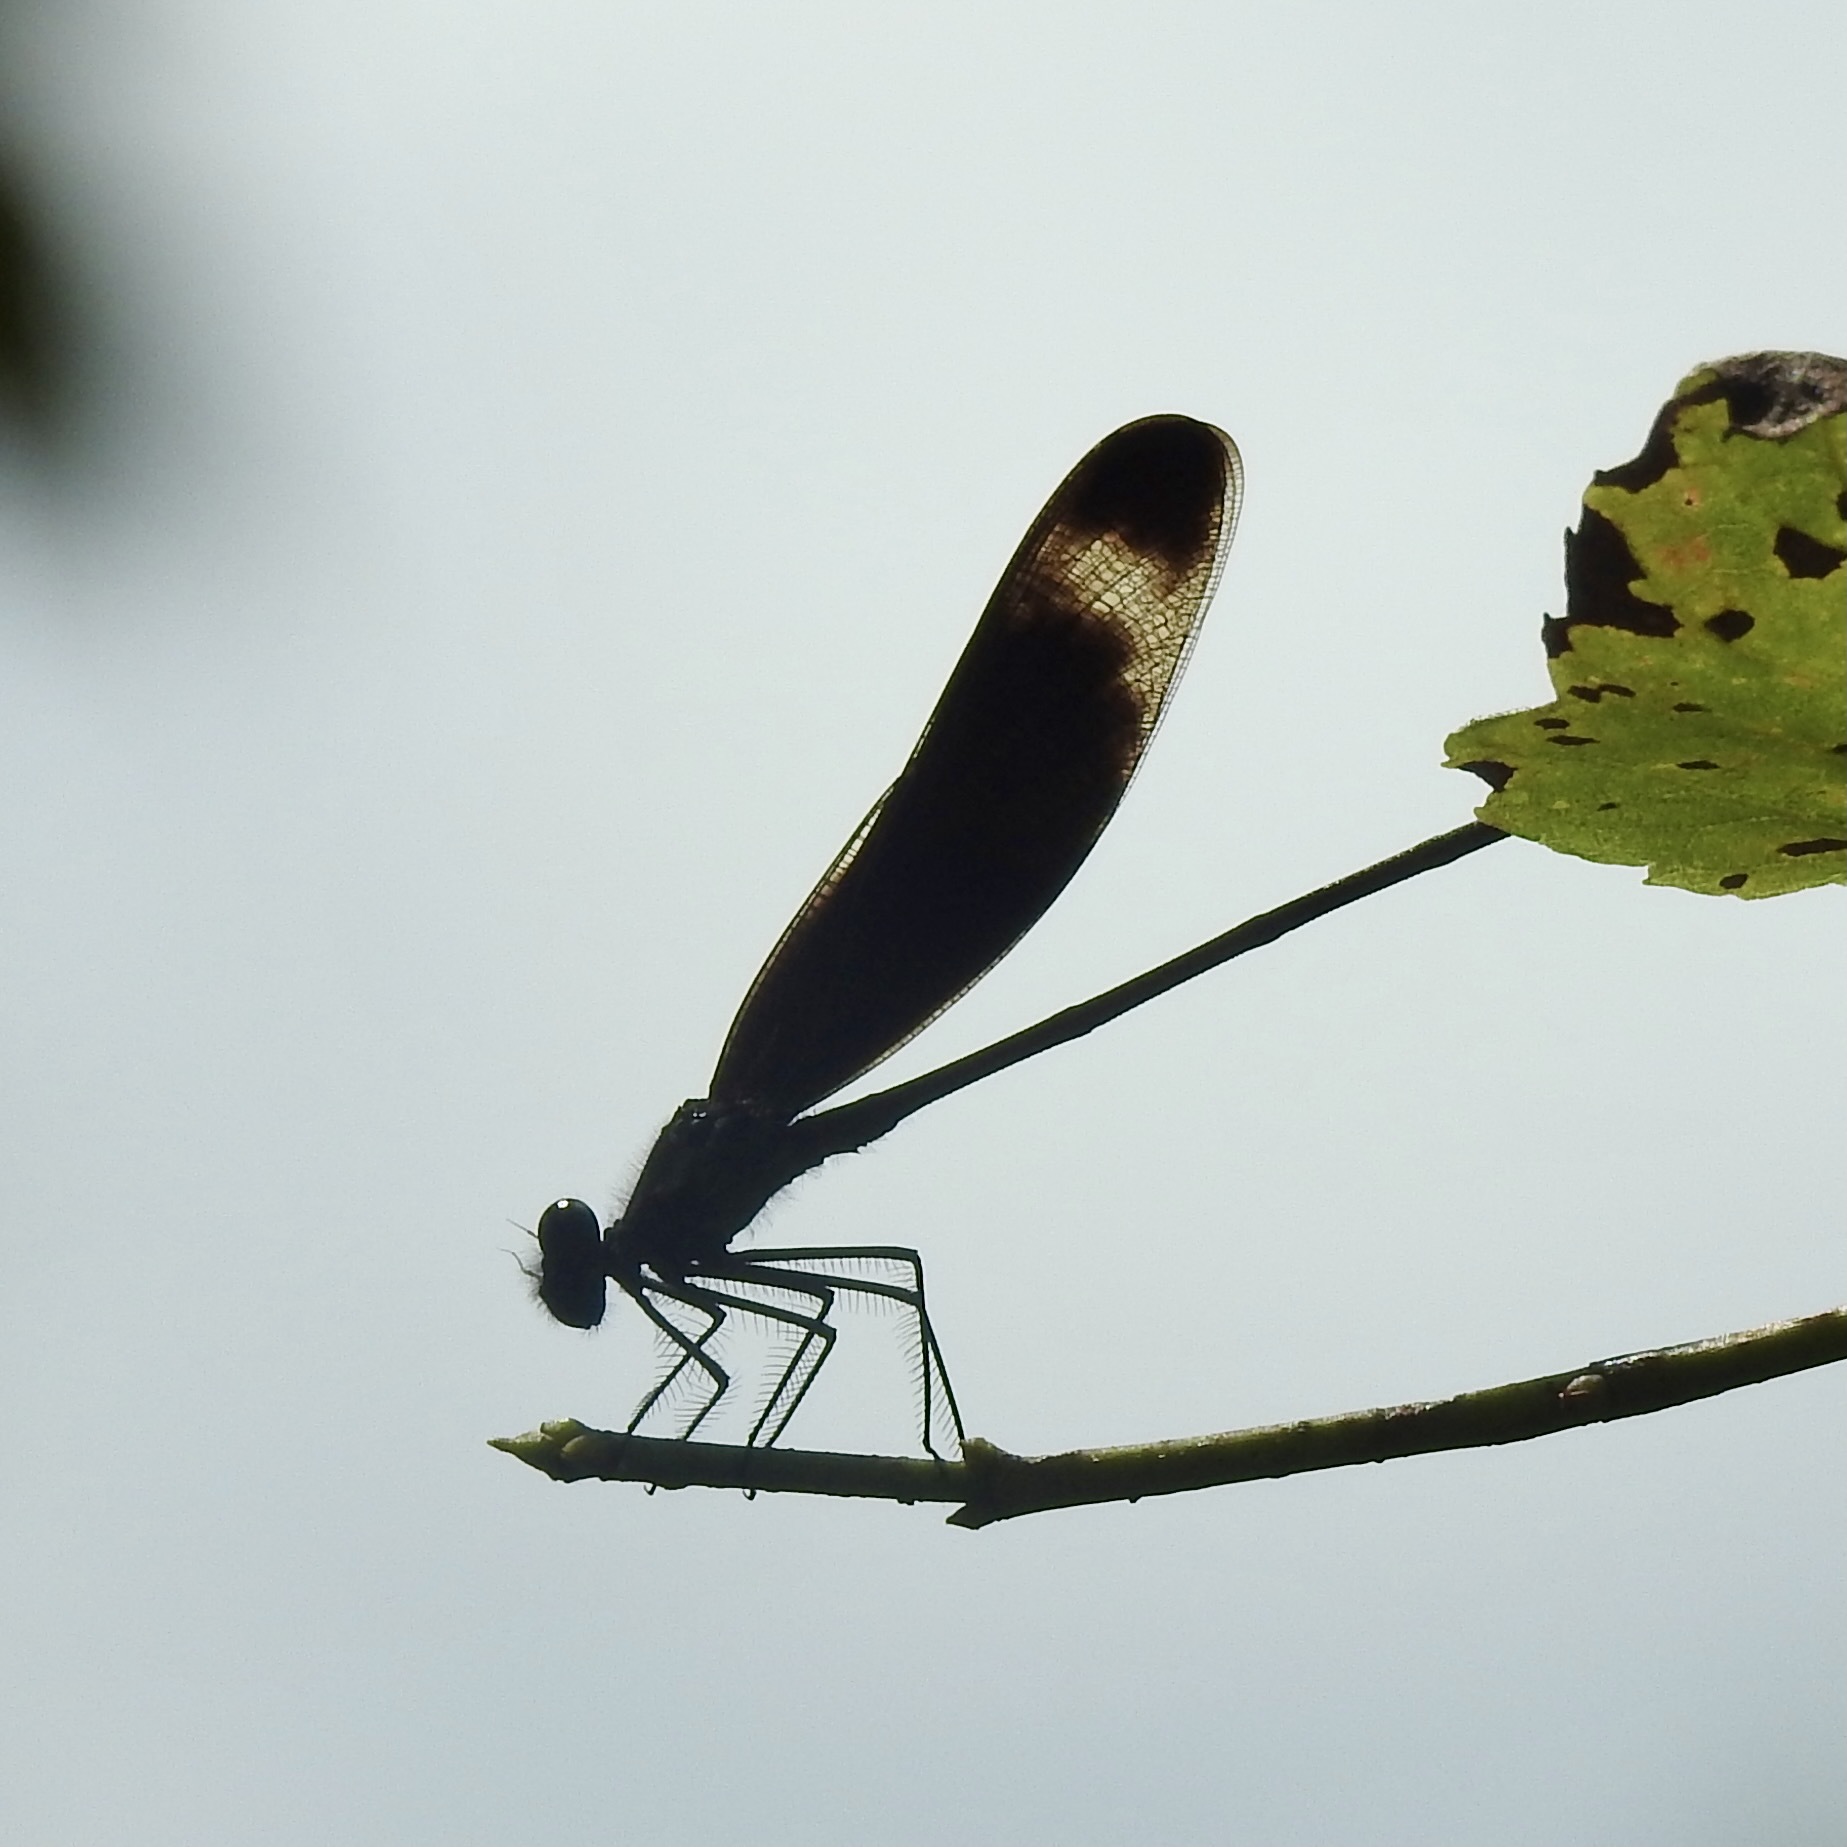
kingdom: Animalia
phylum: Arthropoda
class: Insecta
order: Odonata
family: Calopterygidae
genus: Hetaerina
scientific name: Hetaerina titia
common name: Smoky rubyspot
